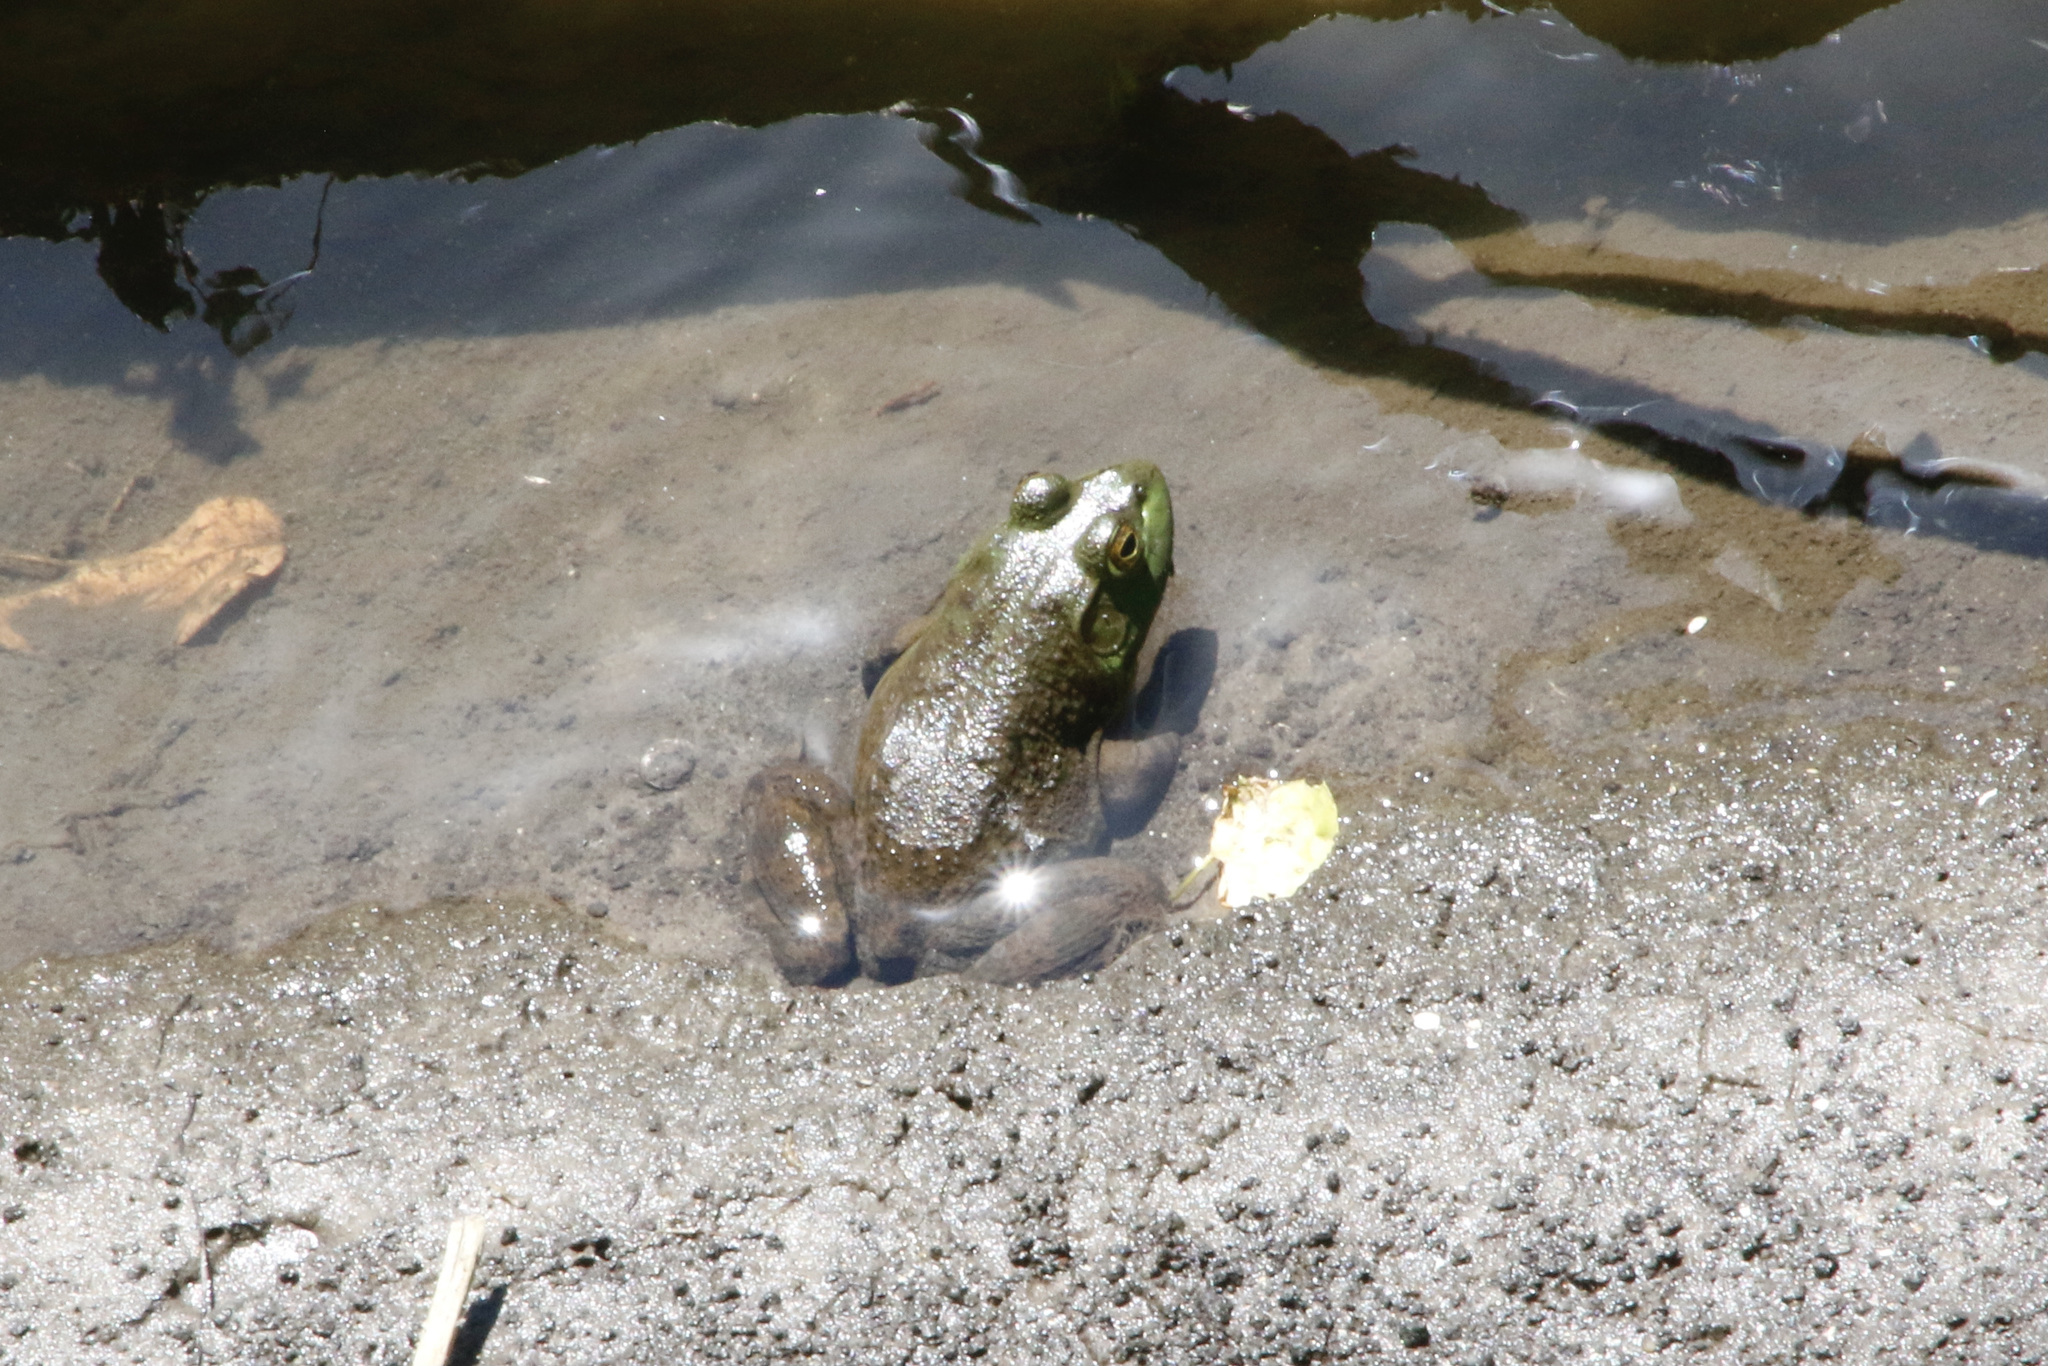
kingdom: Animalia
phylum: Chordata
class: Amphibia
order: Anura
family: Ranidae
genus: Lithobates
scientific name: Lithobates catesbeianus
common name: American bullfrog
